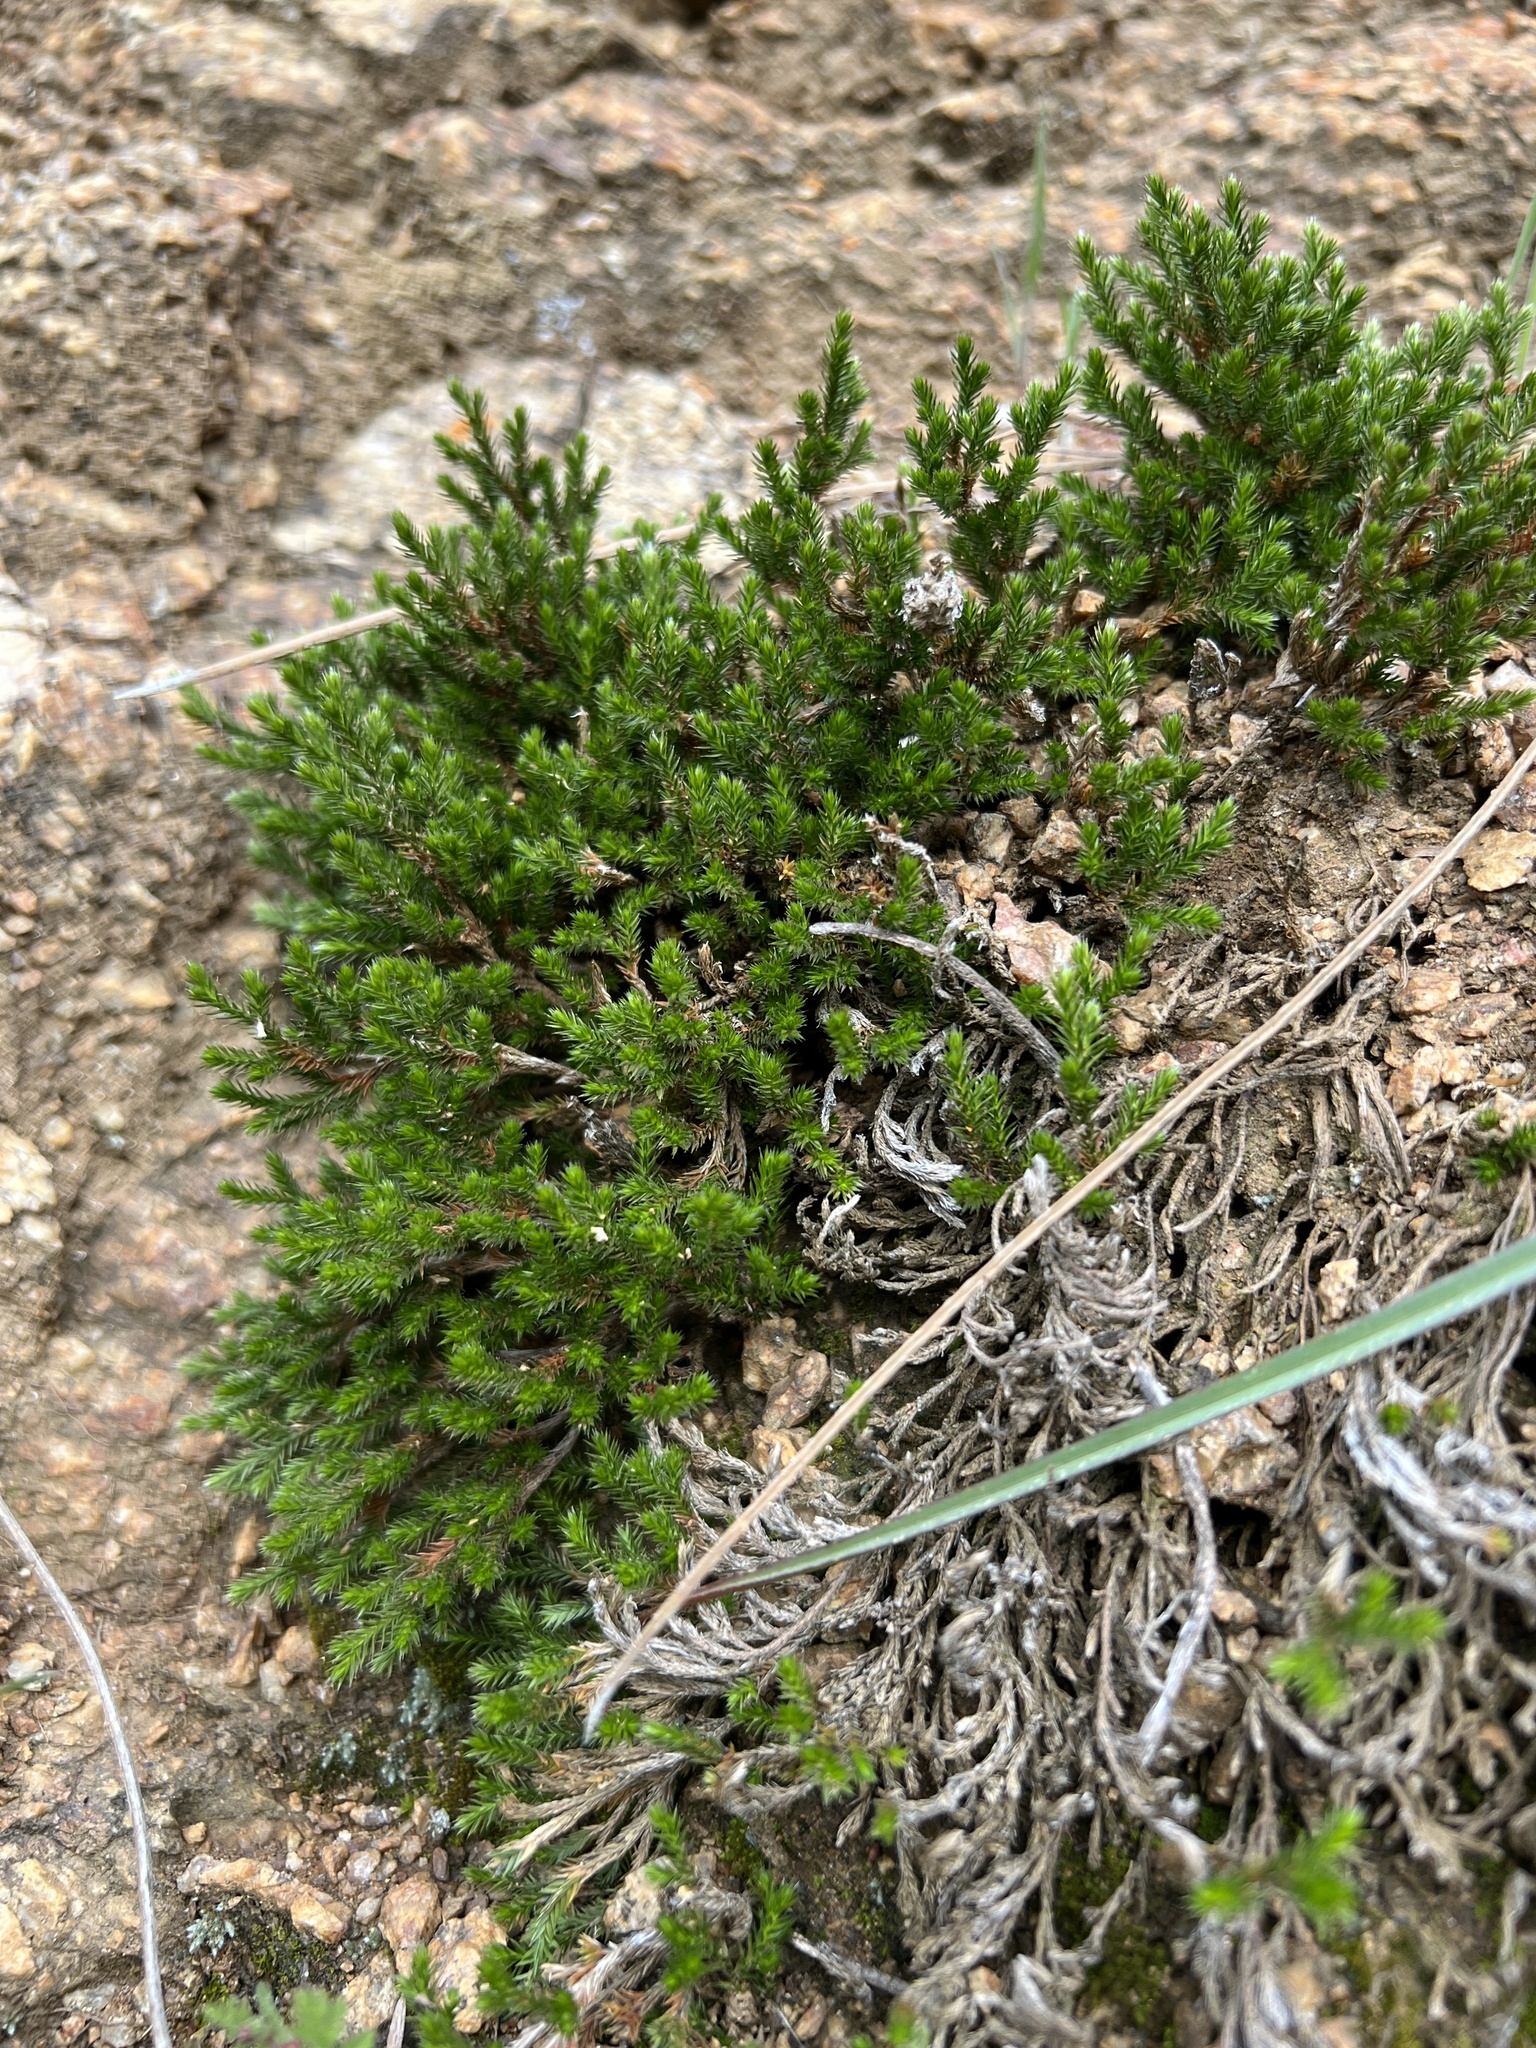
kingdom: Plantae
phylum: Tracheophyta
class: Lycopodiopsida
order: Selaginellales
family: Selaginellaceae
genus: Selaginella
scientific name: Selaginella bigelovii
